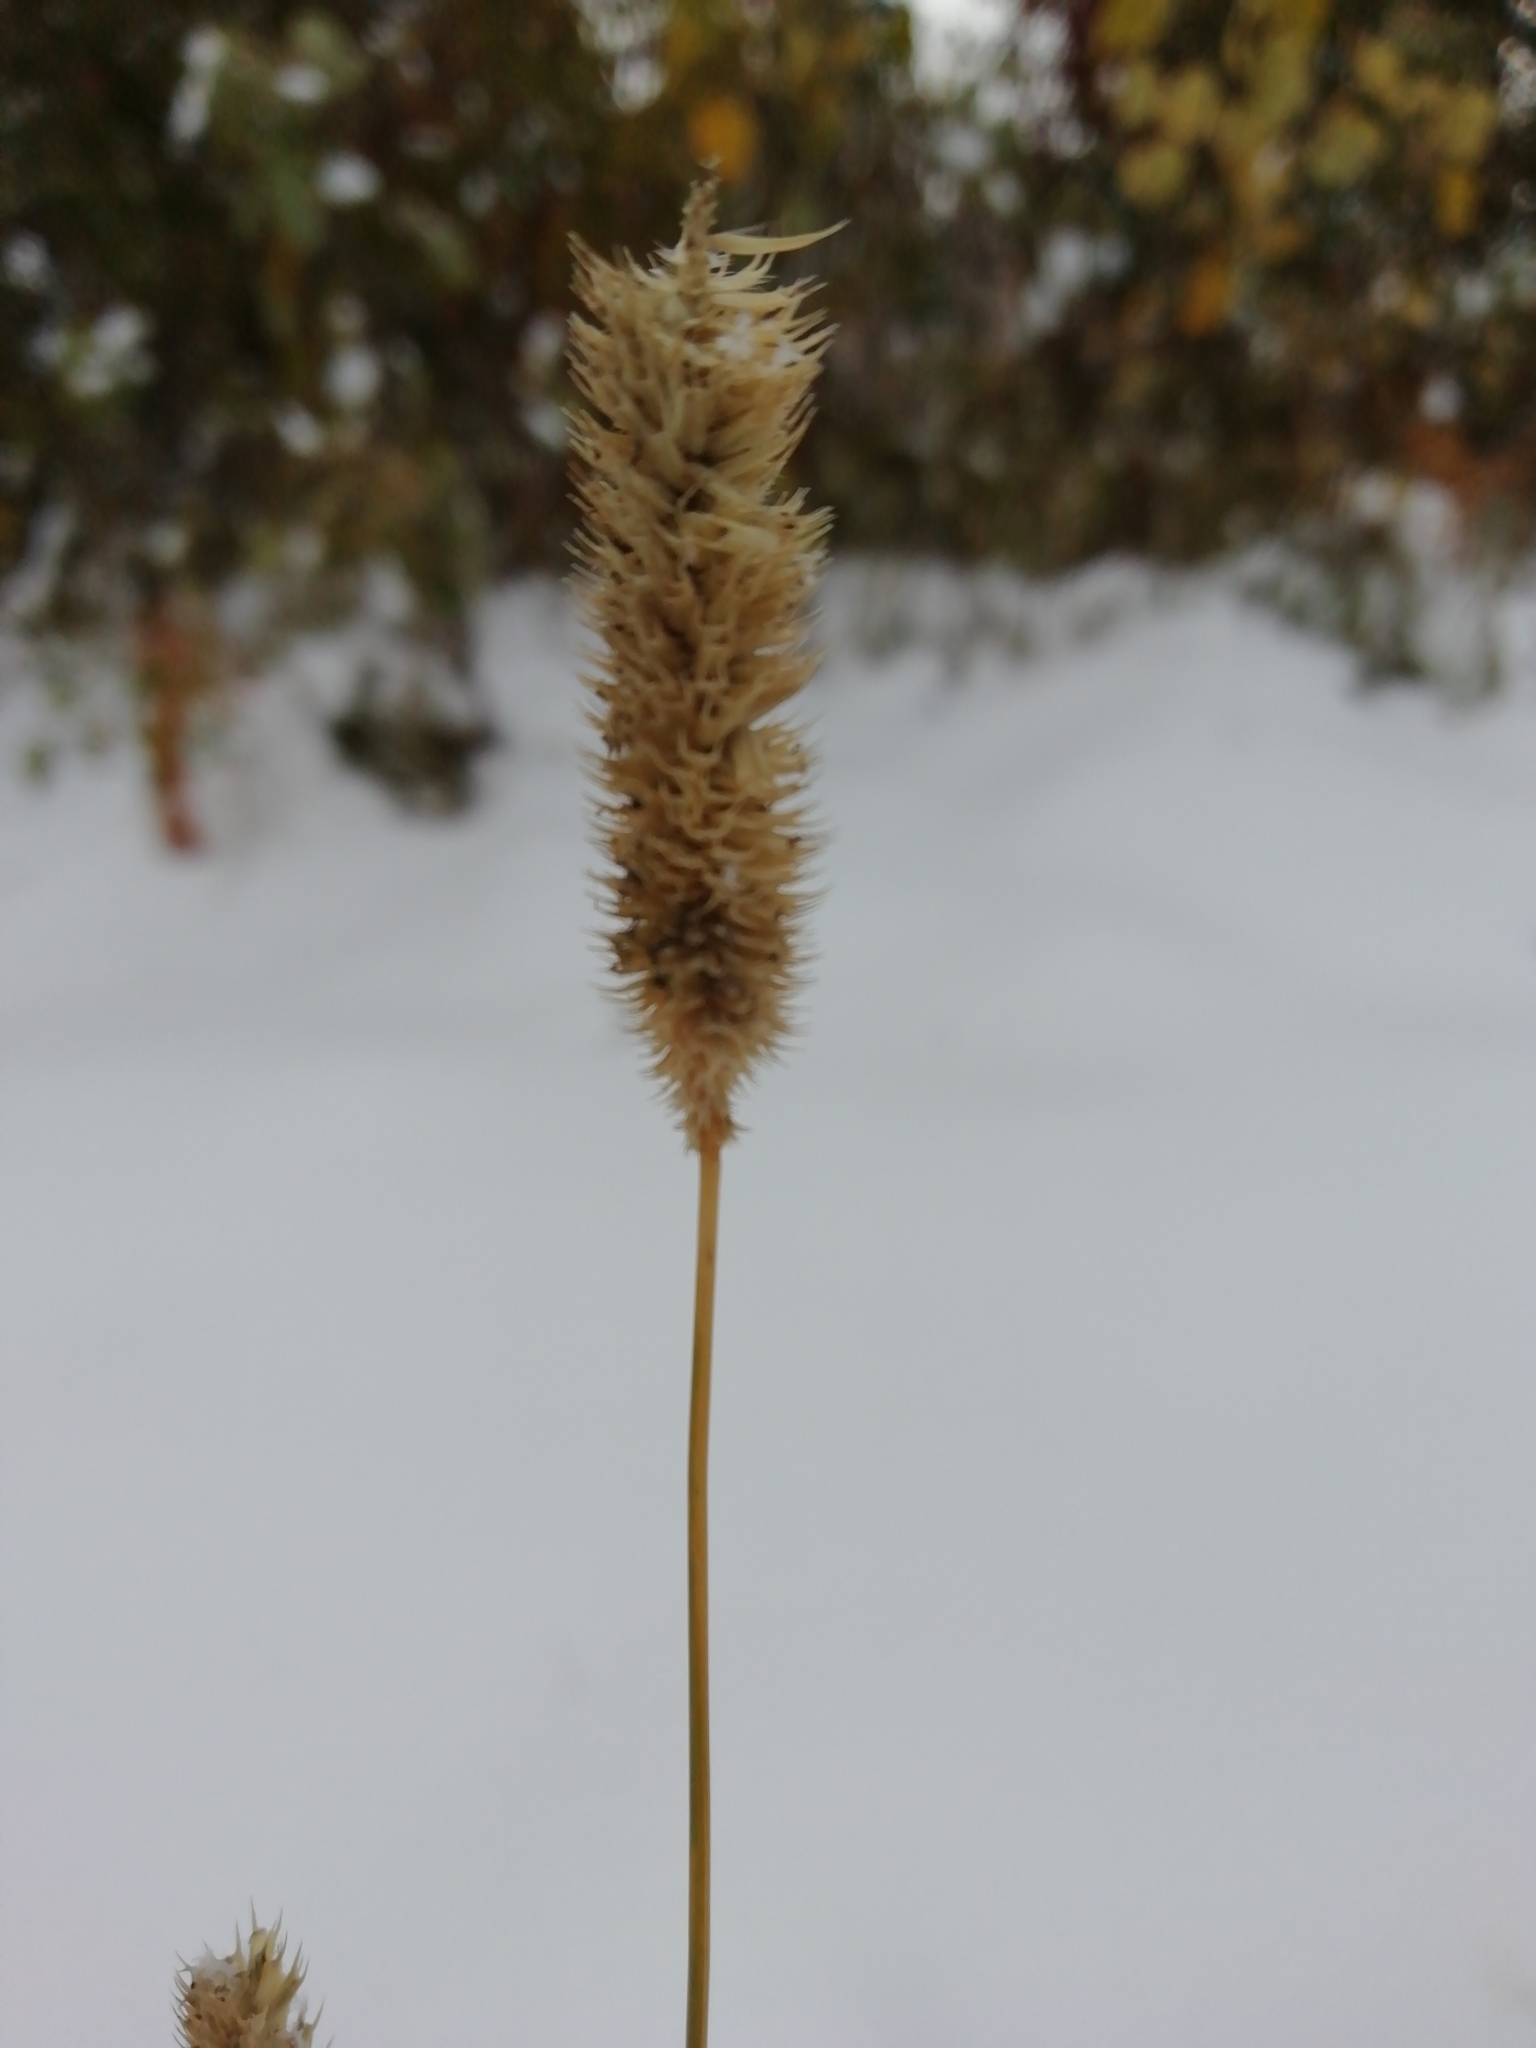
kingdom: Plantae
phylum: Tracheophyta
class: Liliopsida
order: Poales
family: Poaceae
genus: Phleum
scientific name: Phleum pratense
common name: Timothy grass
